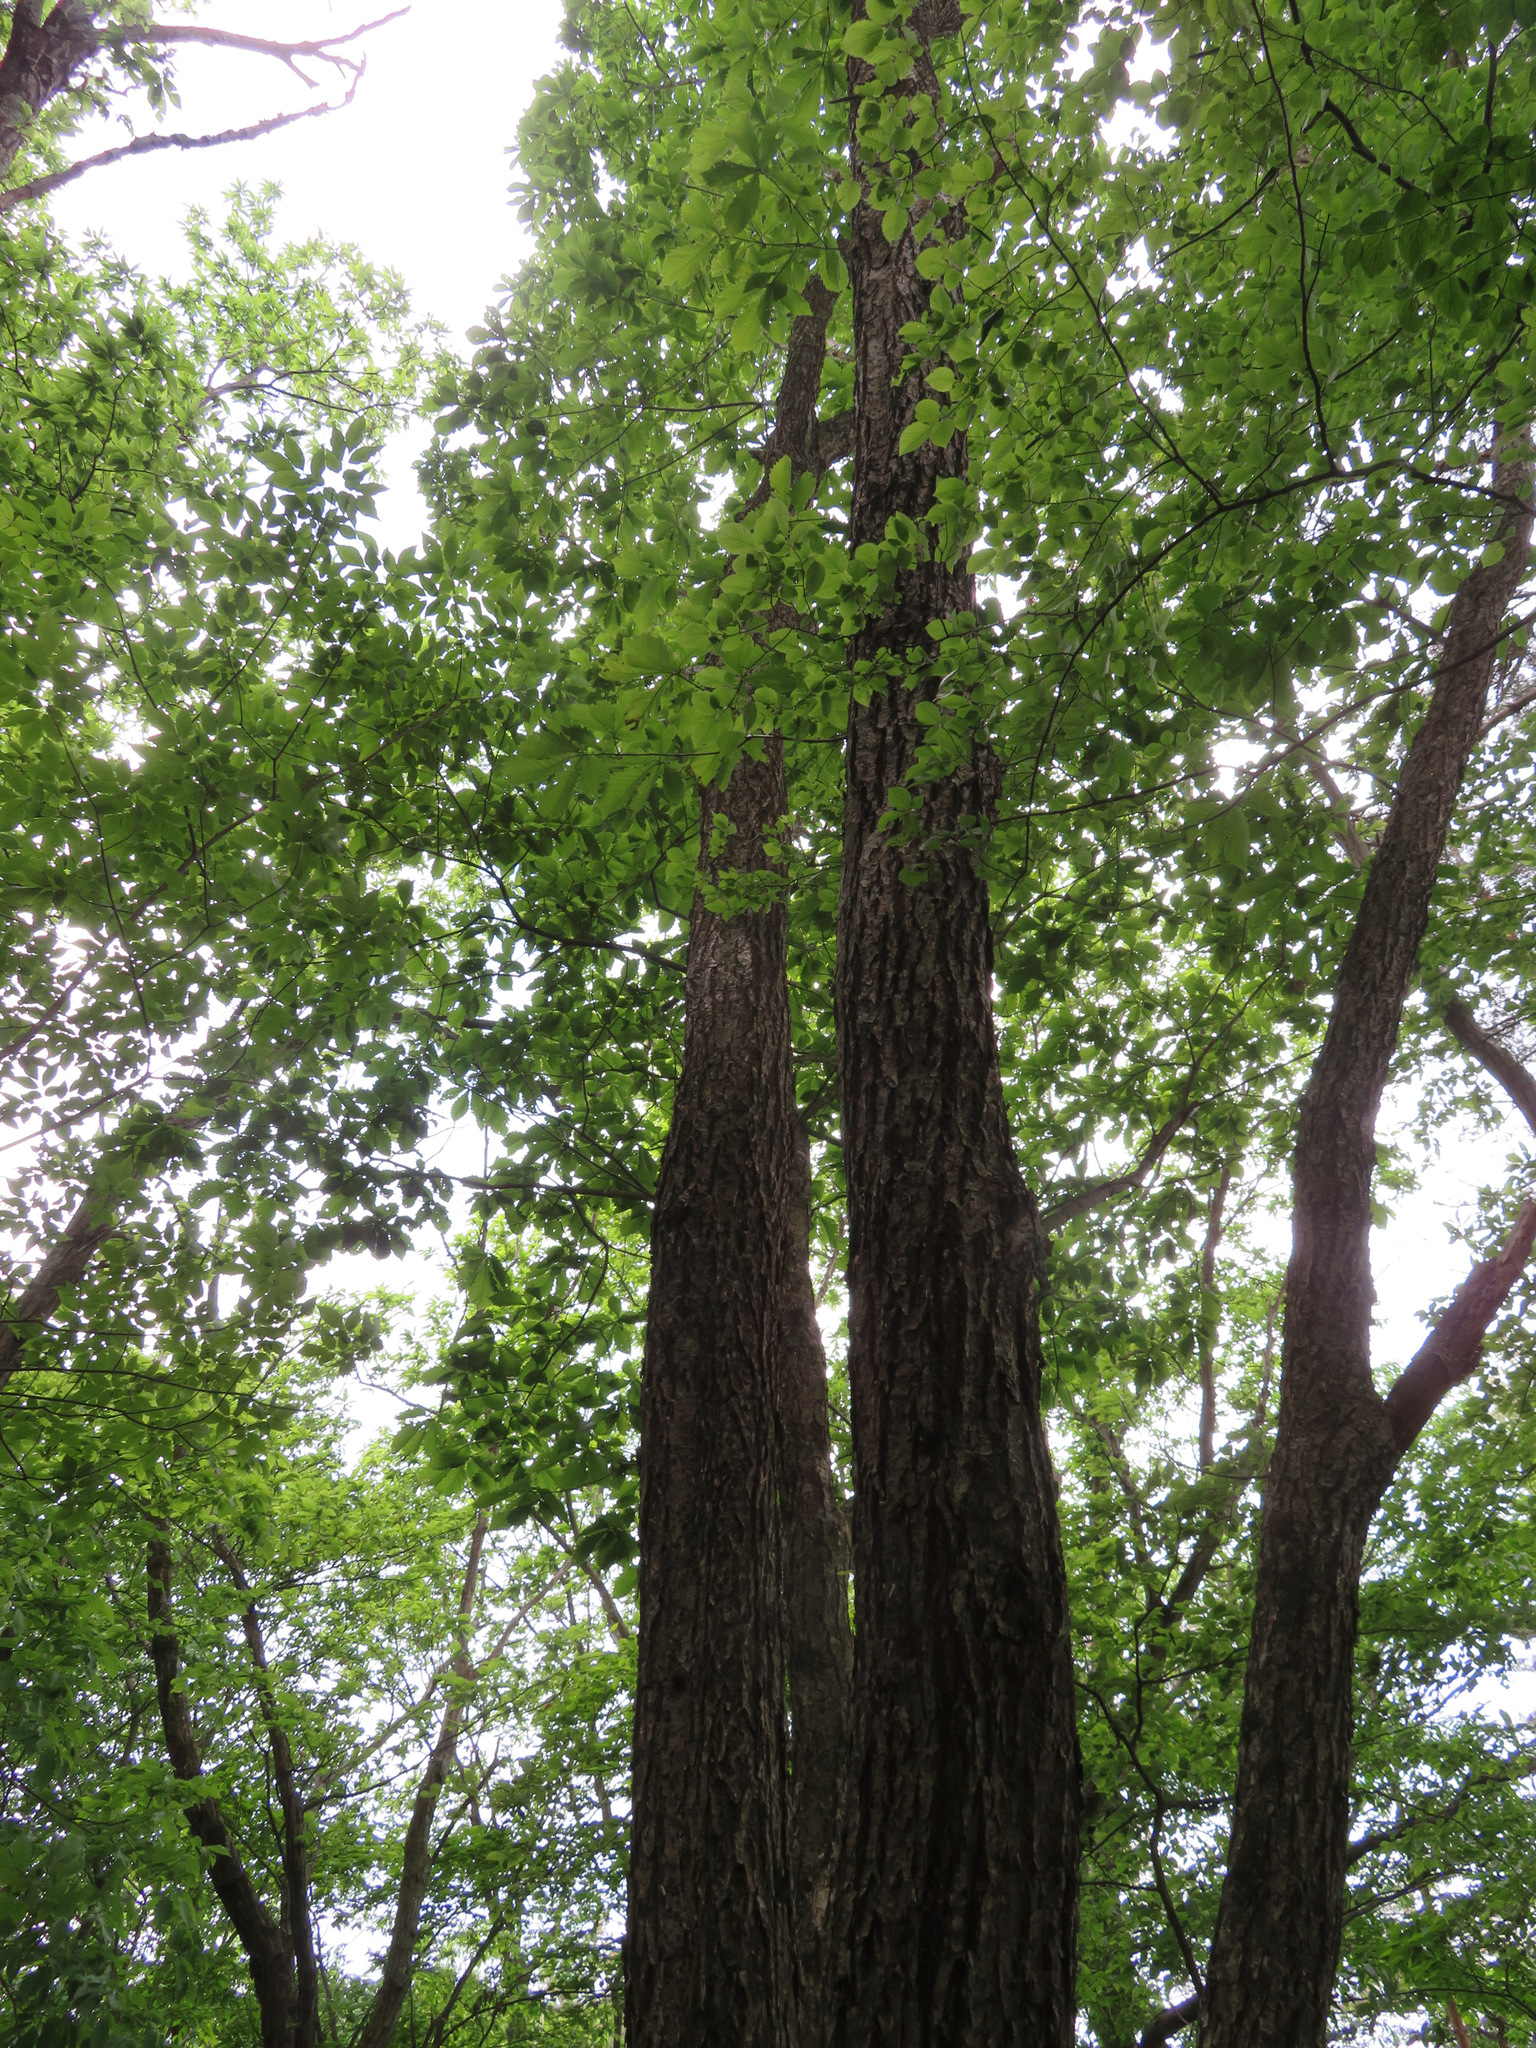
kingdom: Plantae
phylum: Tracheophyta
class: Magnoliopsida
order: Fagales
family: Fagaceae
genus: Quercus
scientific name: Quercus crispula
